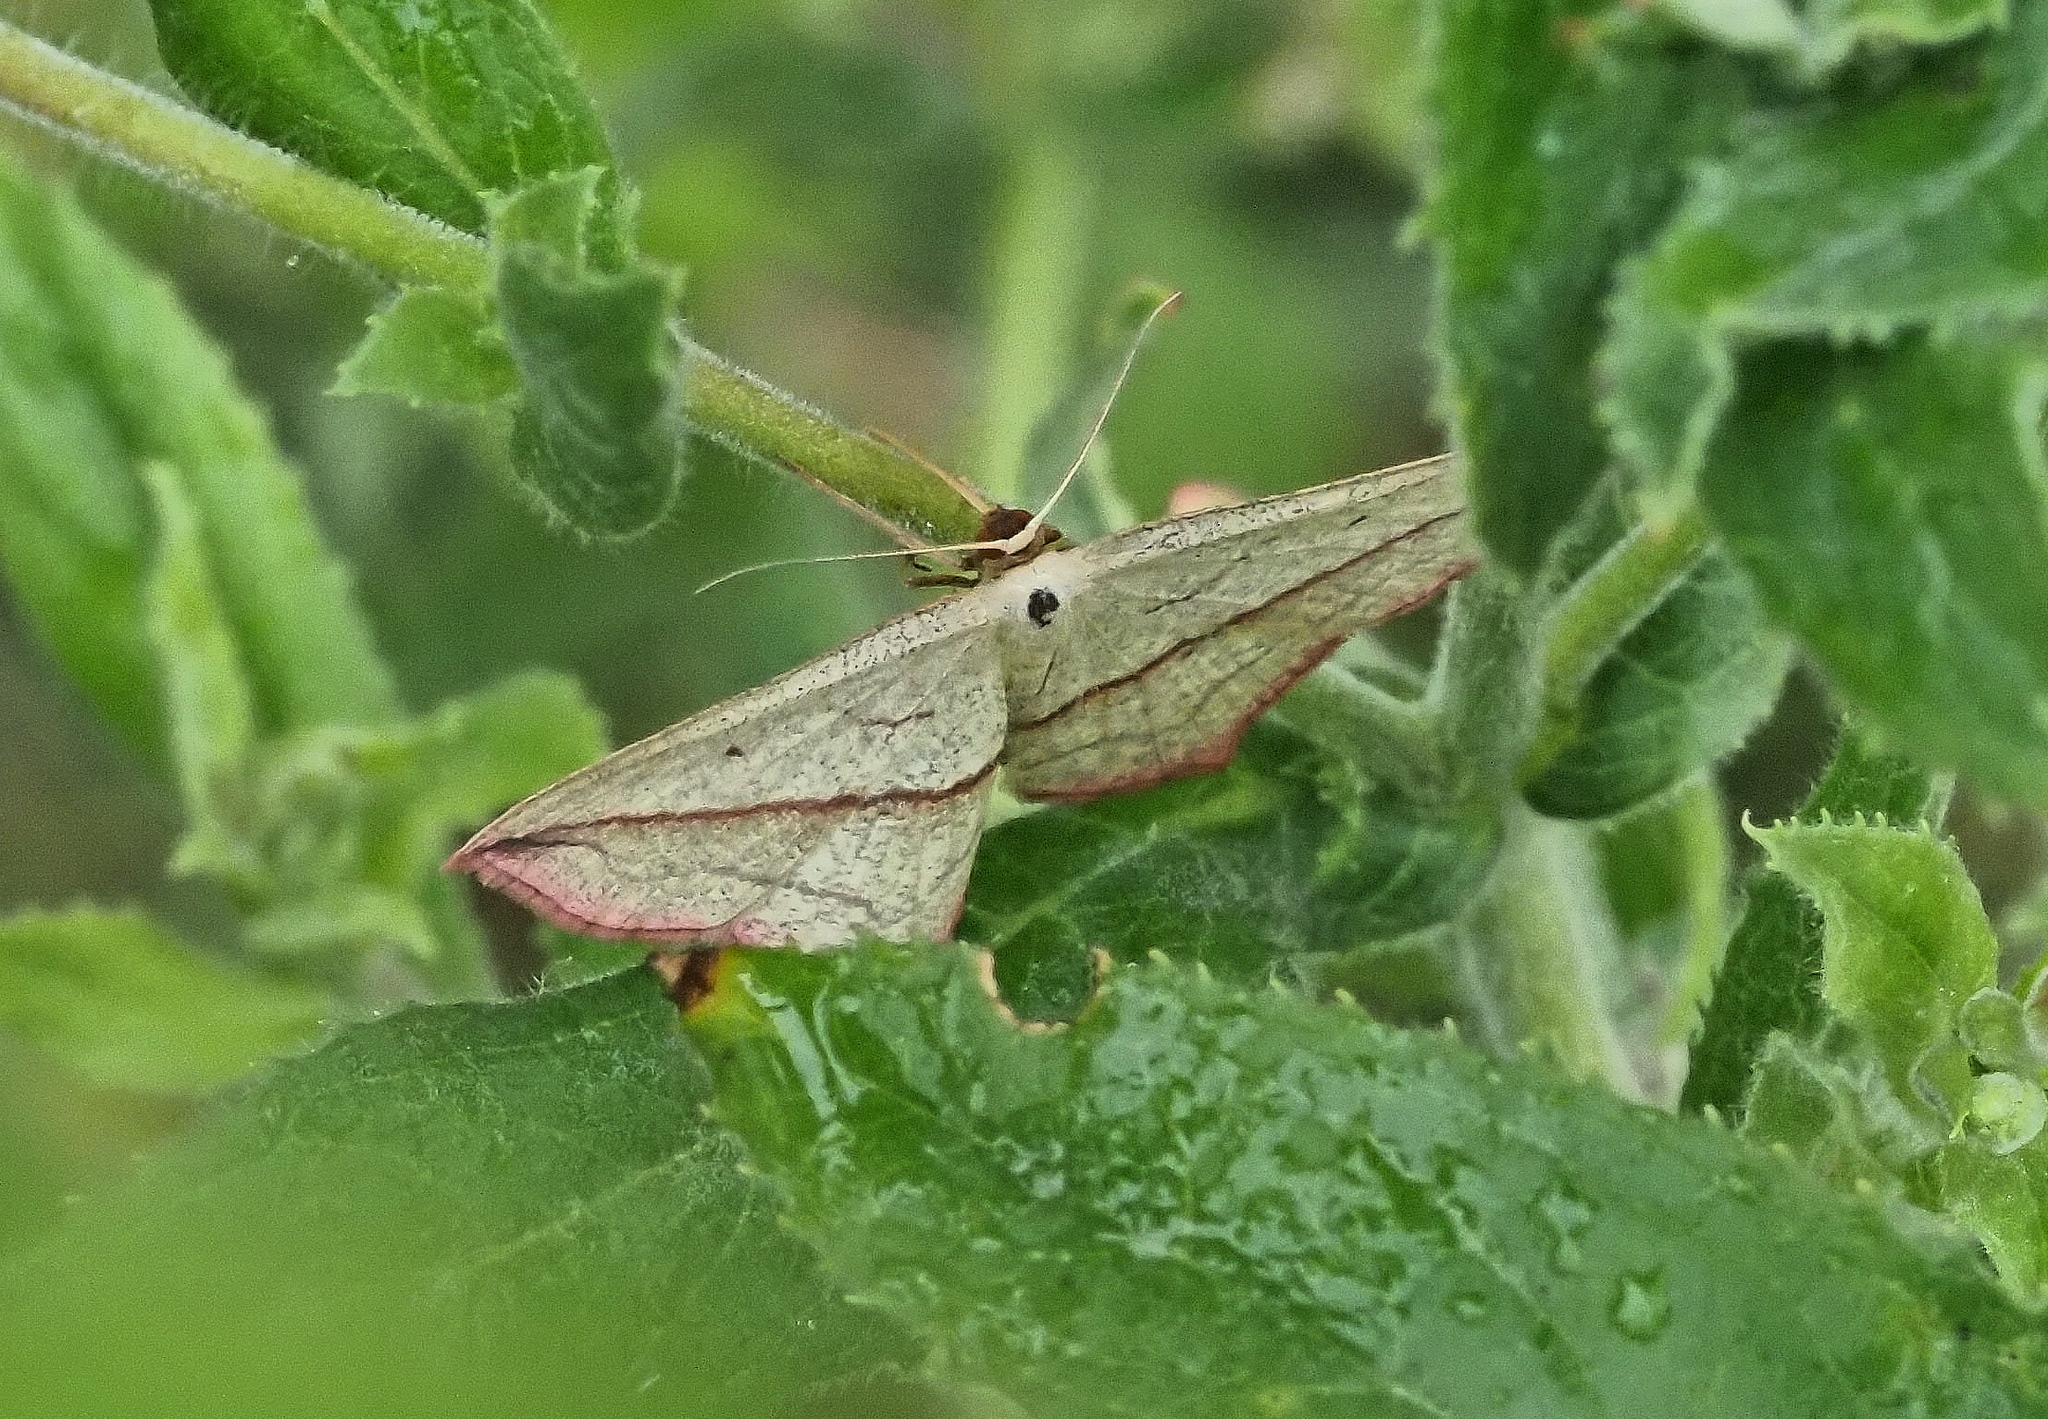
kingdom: Animalia
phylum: Arthropoda
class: Insecta
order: Lepidoptera
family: Geometridae
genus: Timandra
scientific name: Timandra comae
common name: Blood-vein
